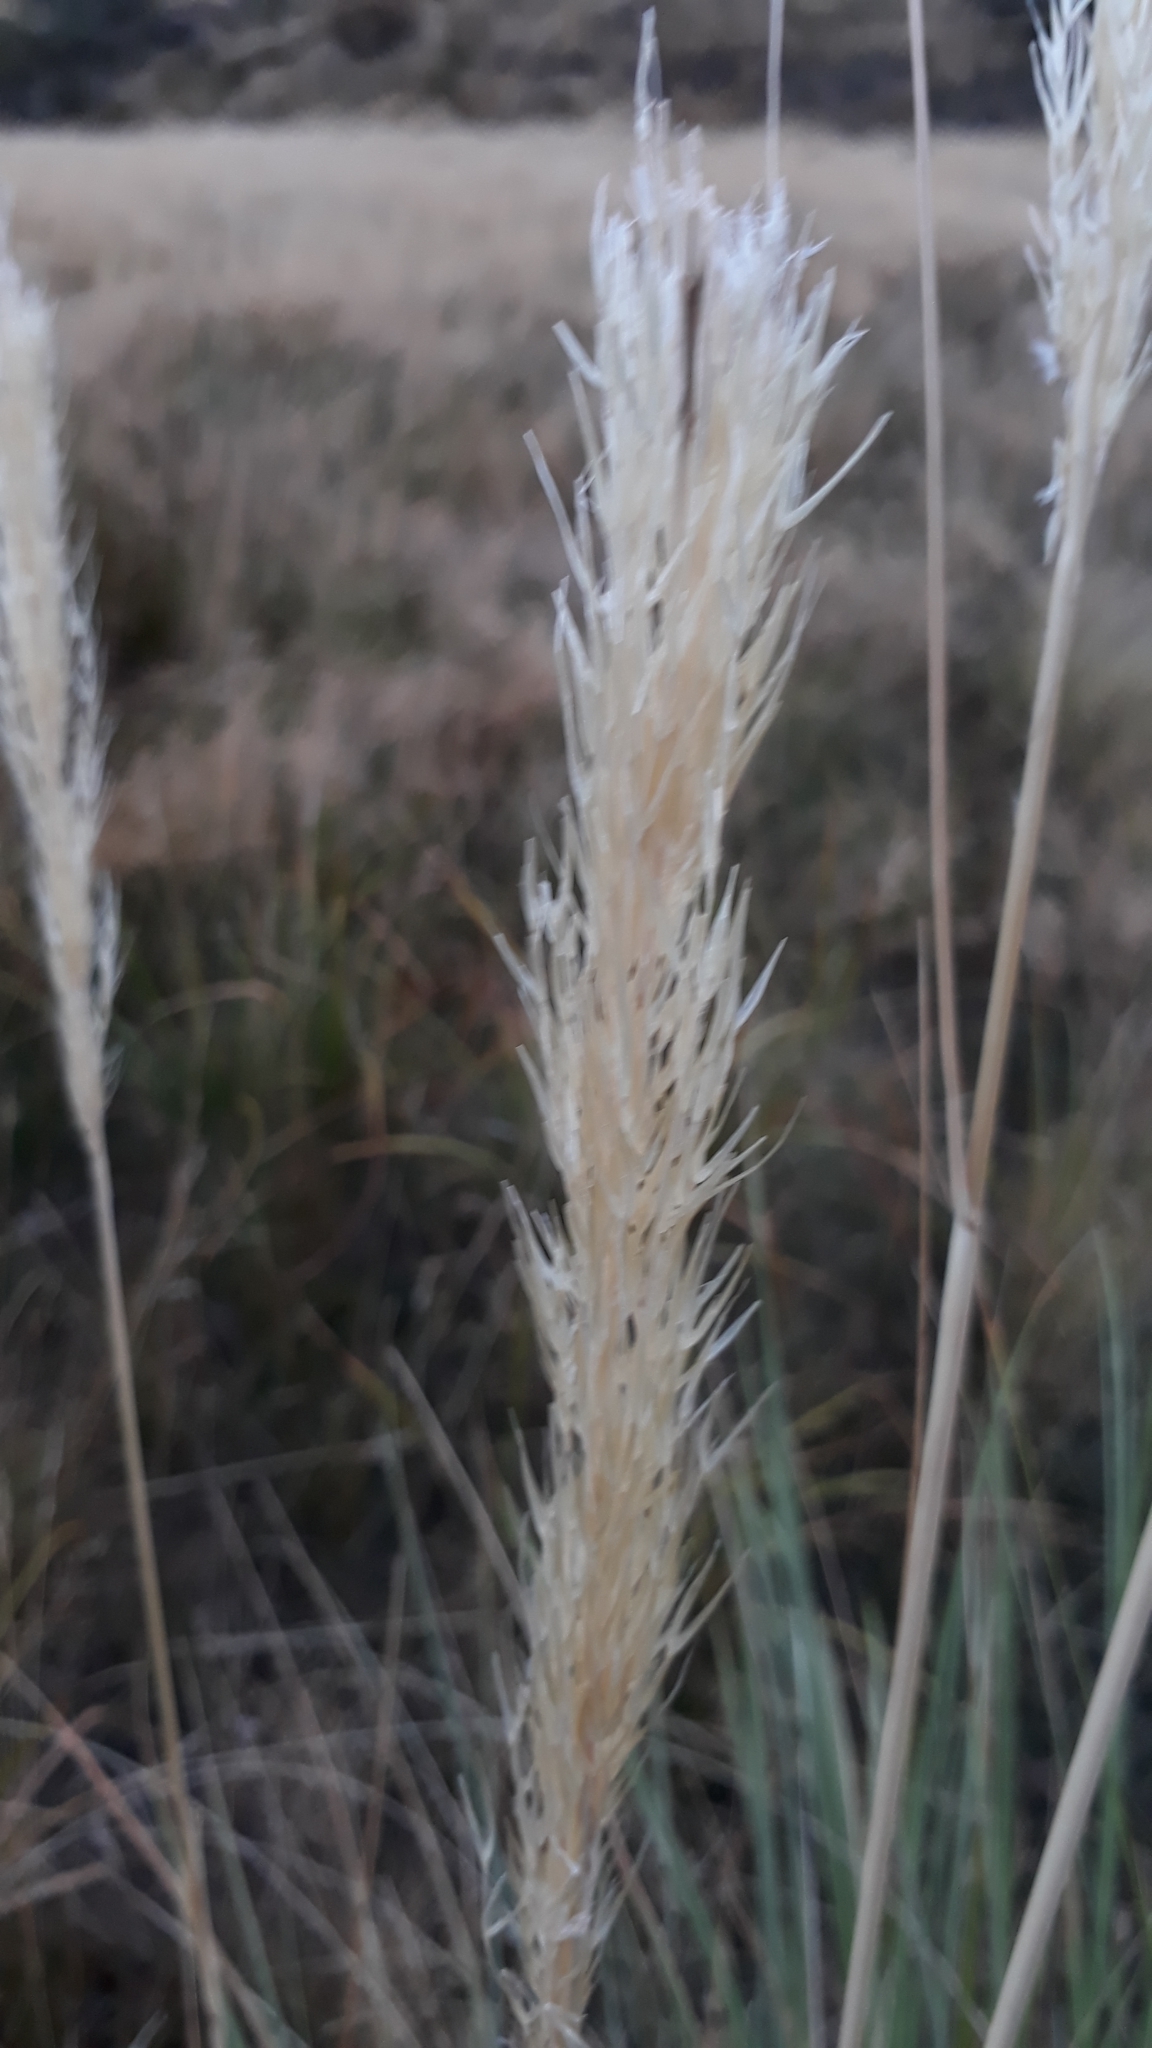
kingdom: Plantae
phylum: Tracheophyta
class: Liliopsida
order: Poales
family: Poaceae
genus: Austroderia
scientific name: Austroderia richardii
